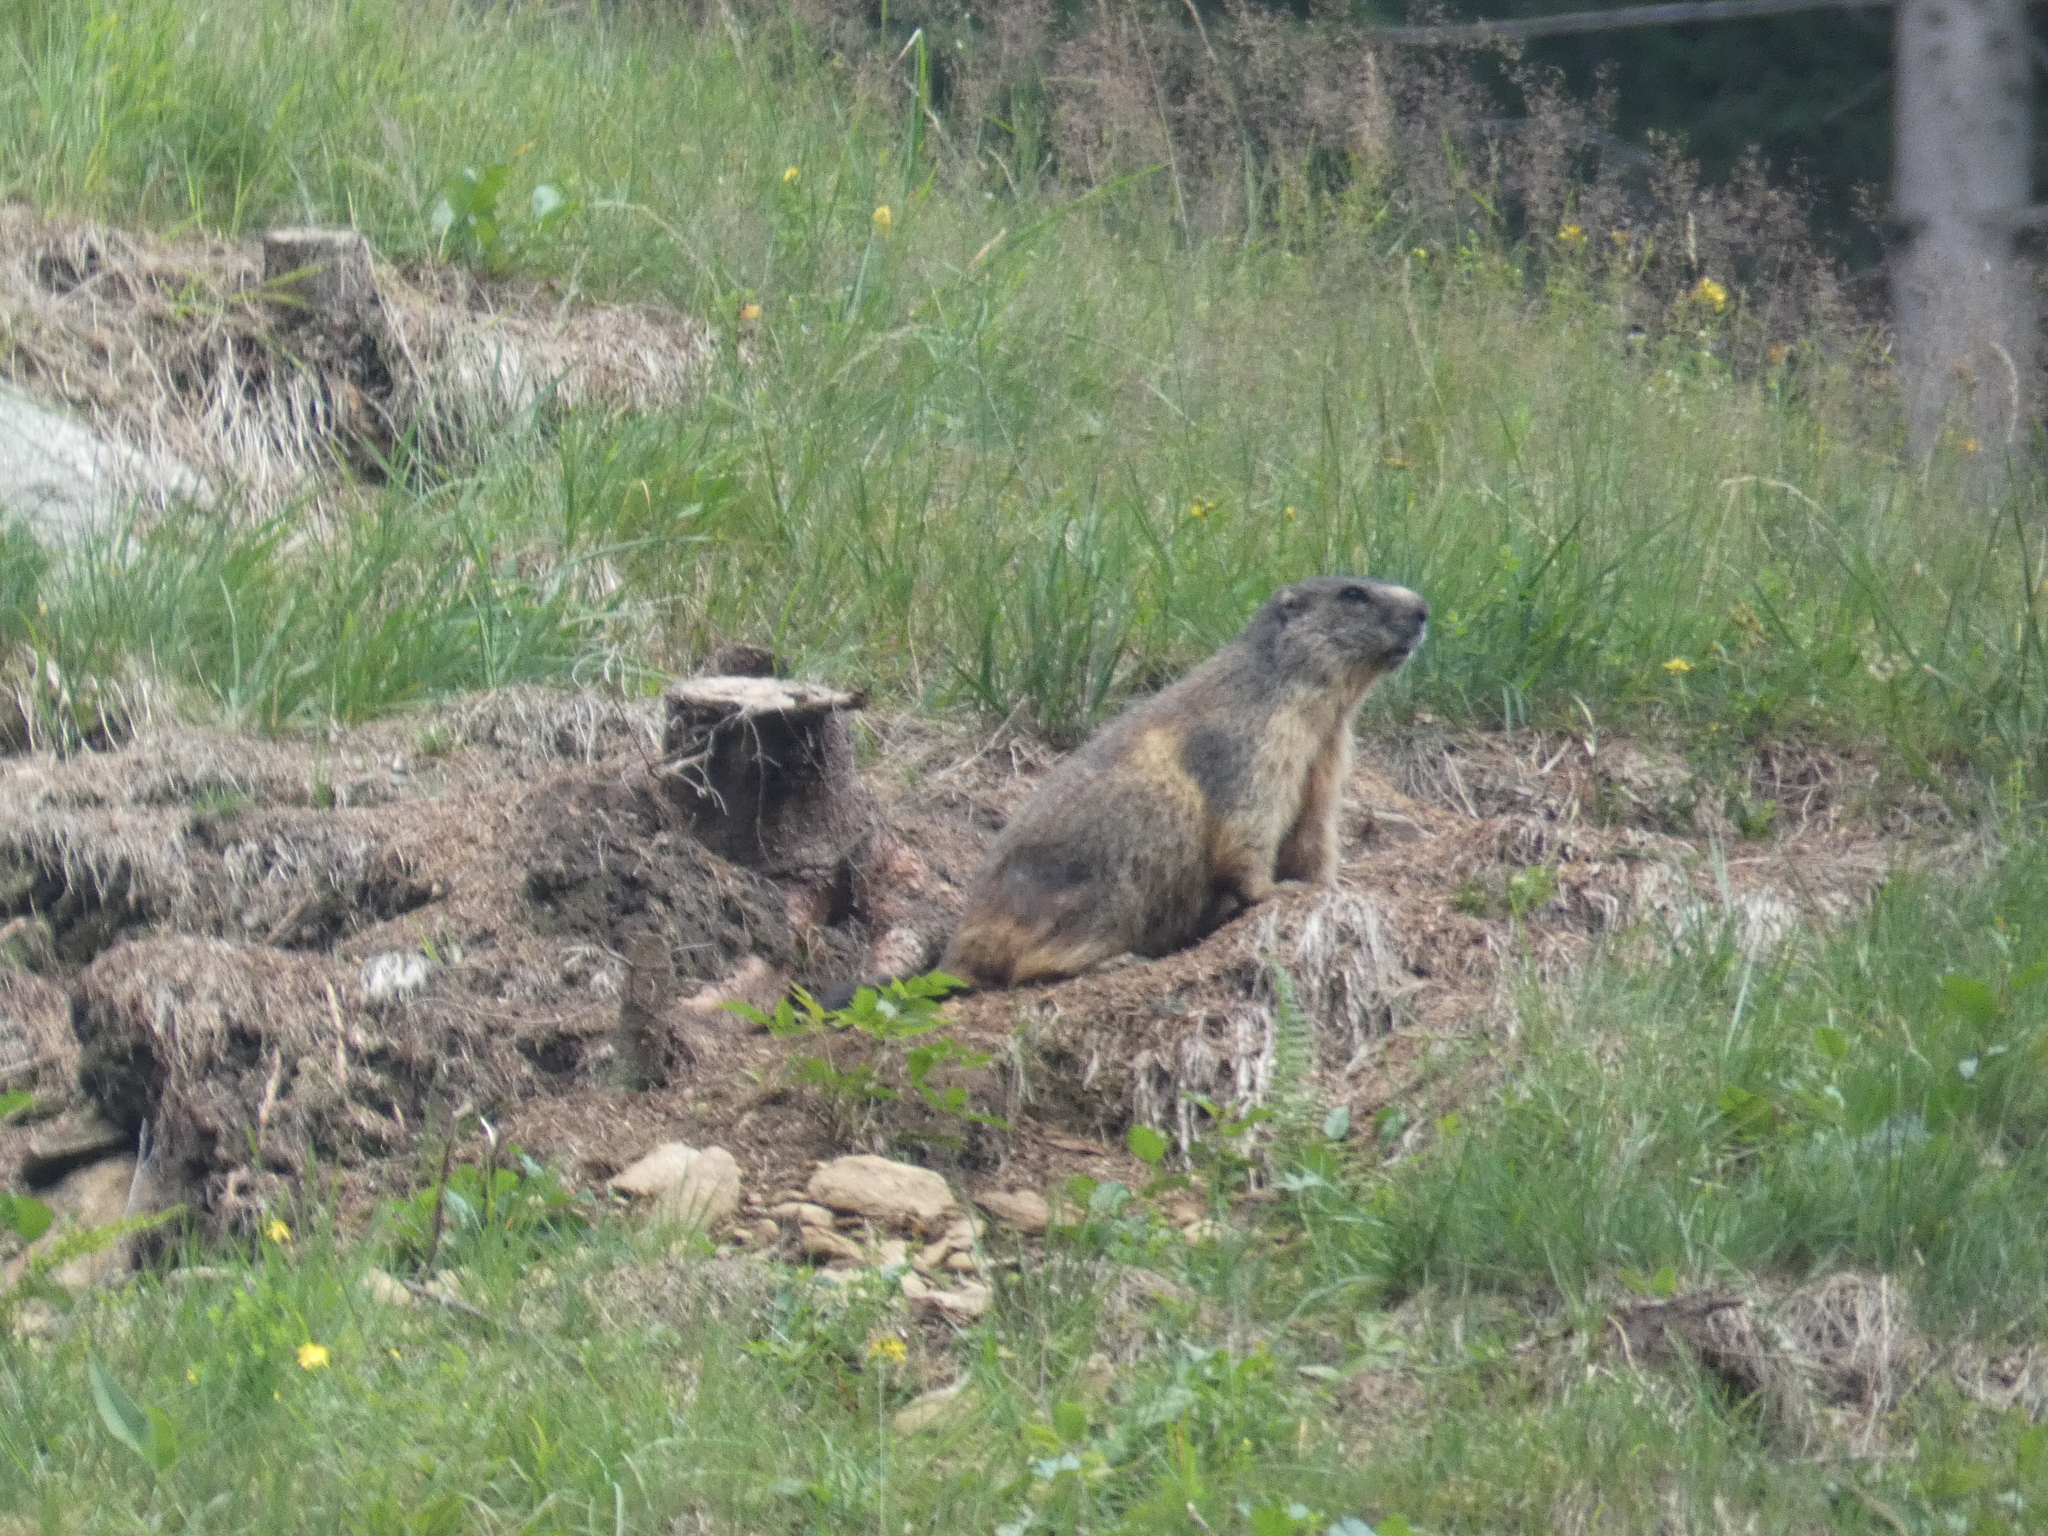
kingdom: Animalia
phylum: Chordata
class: Mammalia
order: Rodentia
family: Sciuridae
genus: Marmota
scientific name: Marmota marmota
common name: Alpine marmot
